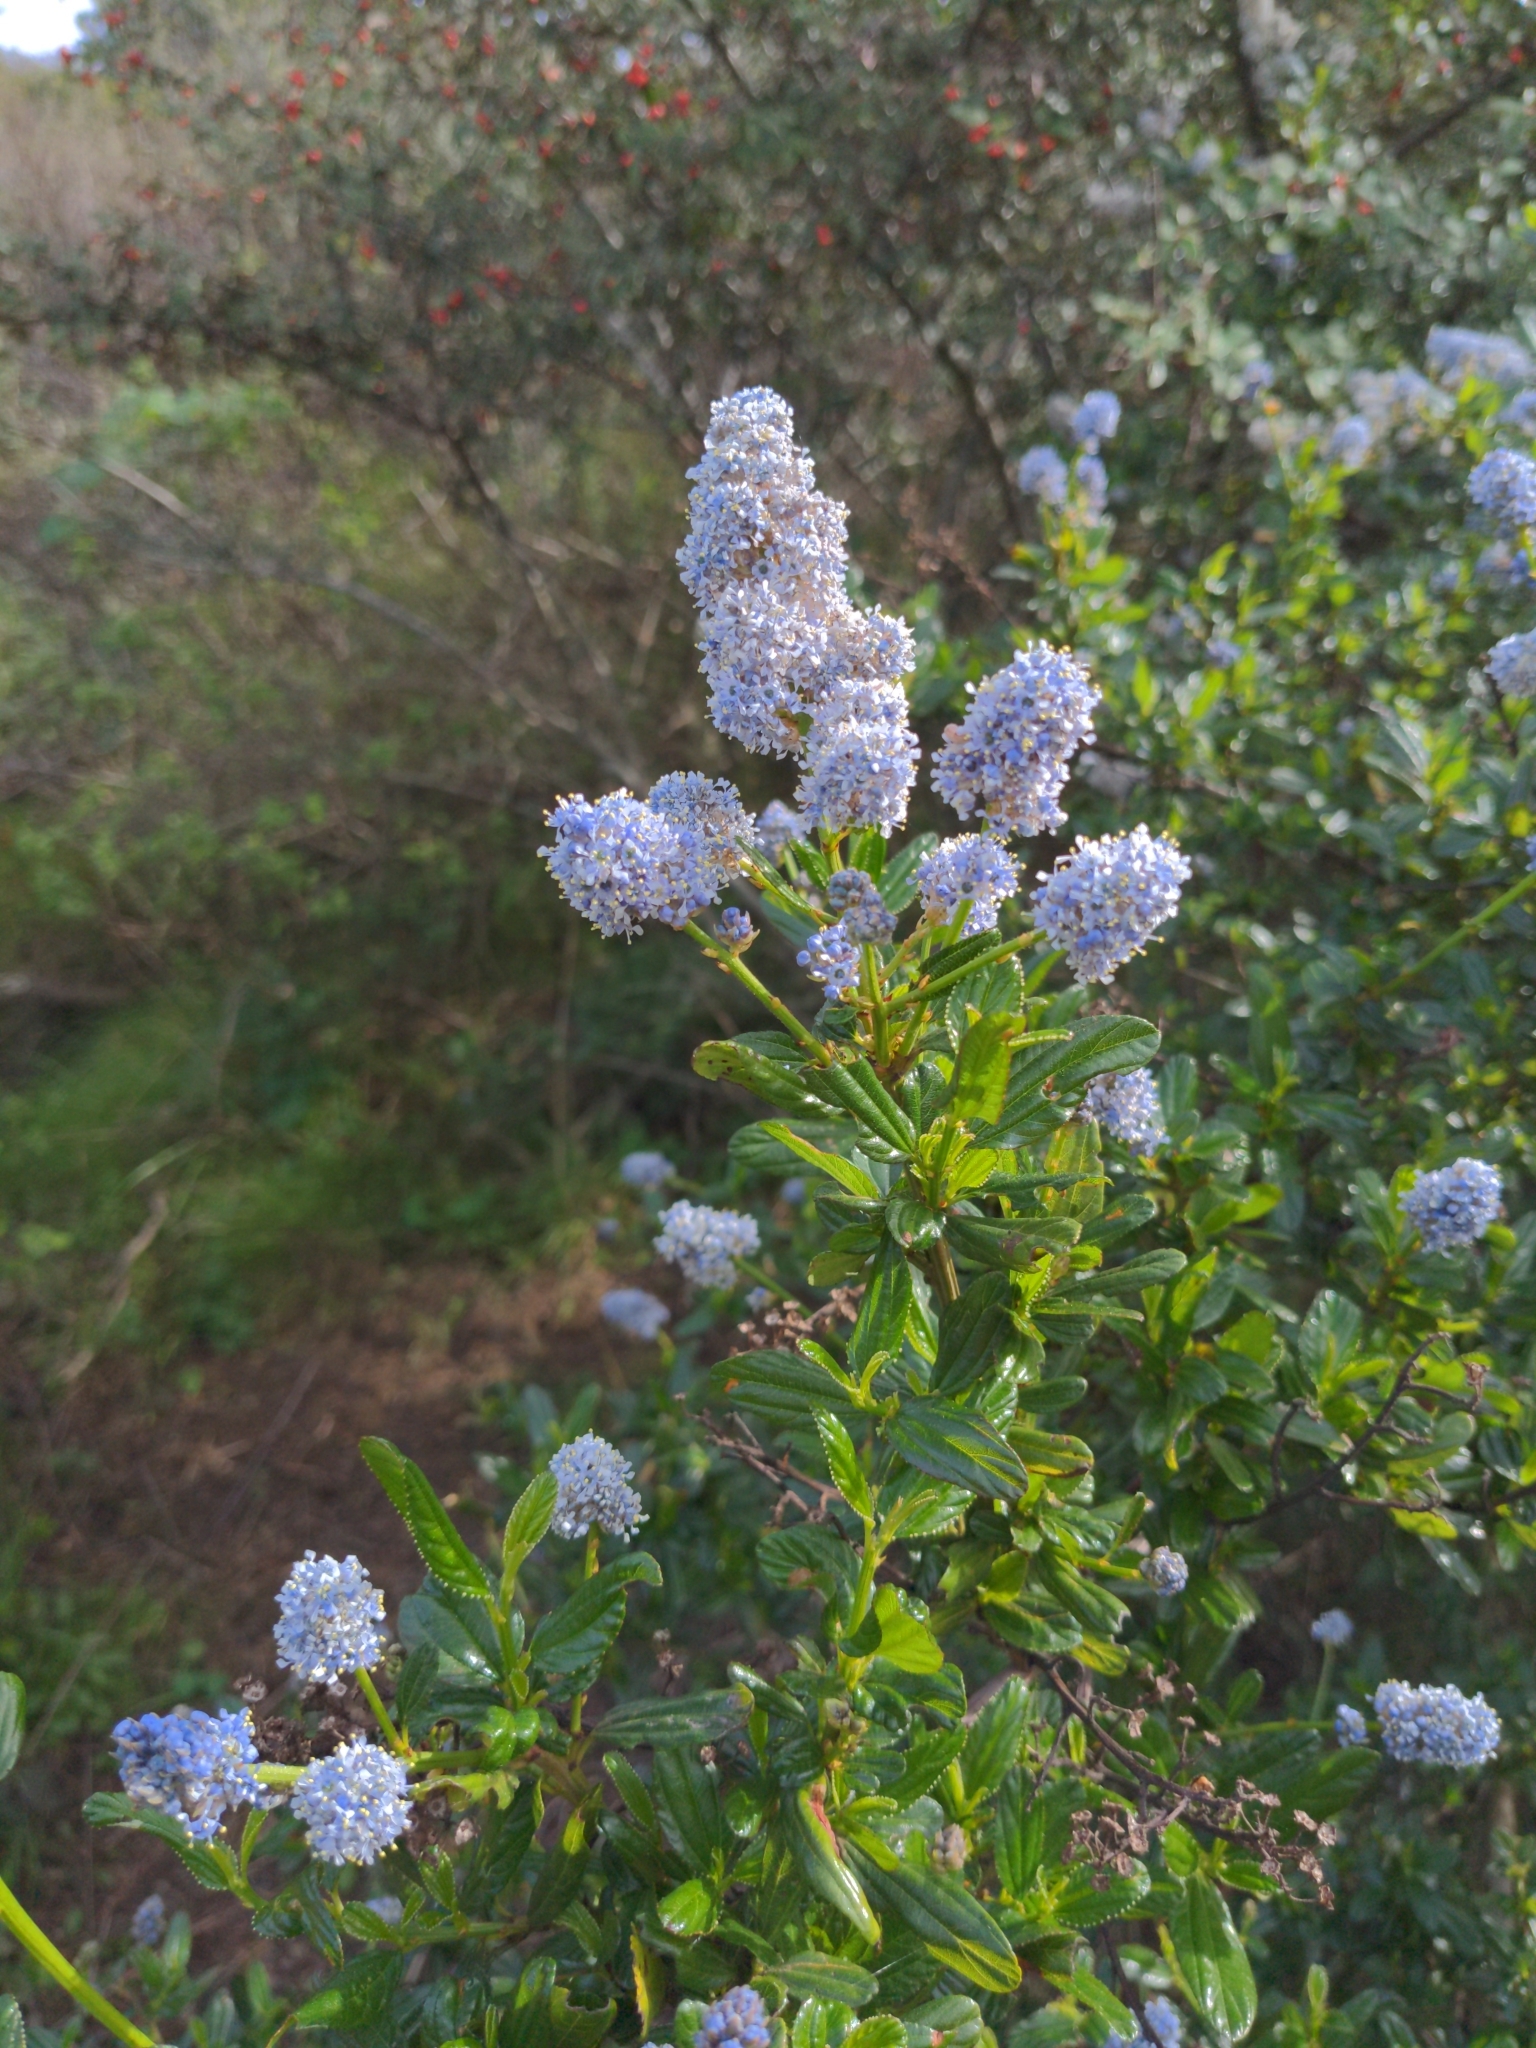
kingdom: Plantae
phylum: Tracheophyta
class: Magnoliopsida
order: Rosales
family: Rhamnaceae
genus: Ceanothus
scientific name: Ceanothus thyrsiflorus
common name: California-lilac
